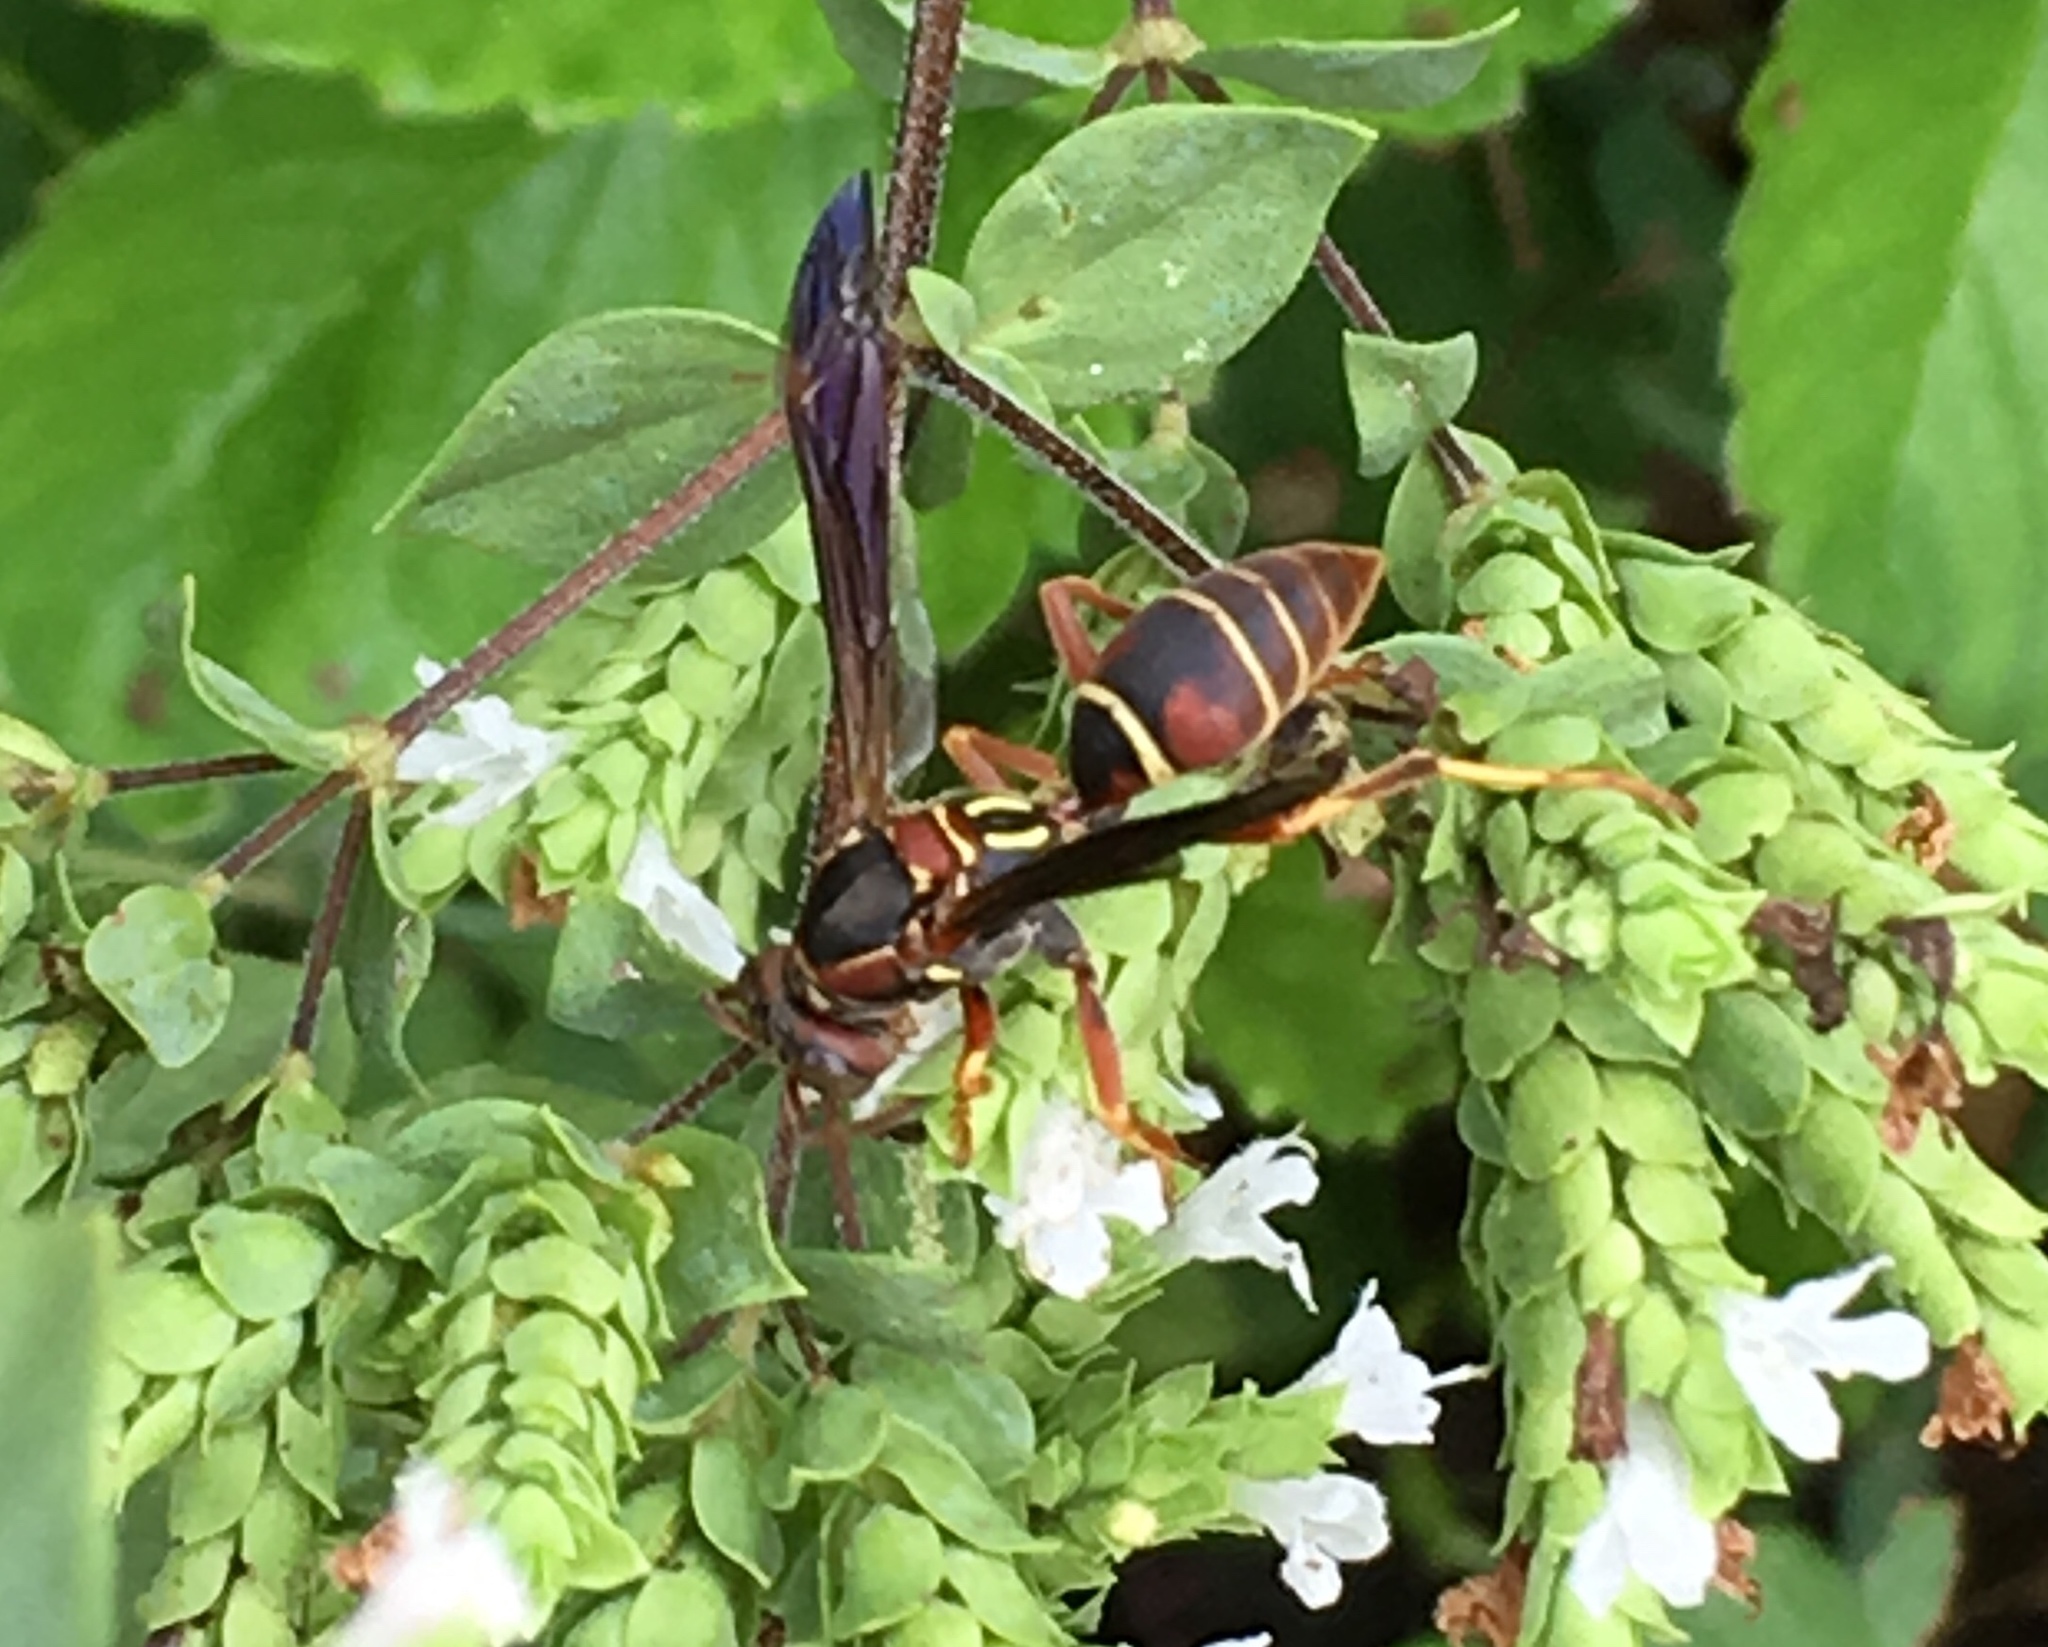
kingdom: Animalia
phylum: Arthropoda
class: Insecta
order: Hymenoptera
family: Eumenidae
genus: Polistes
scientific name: Polistes fuscatus
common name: Dark paper wasp
